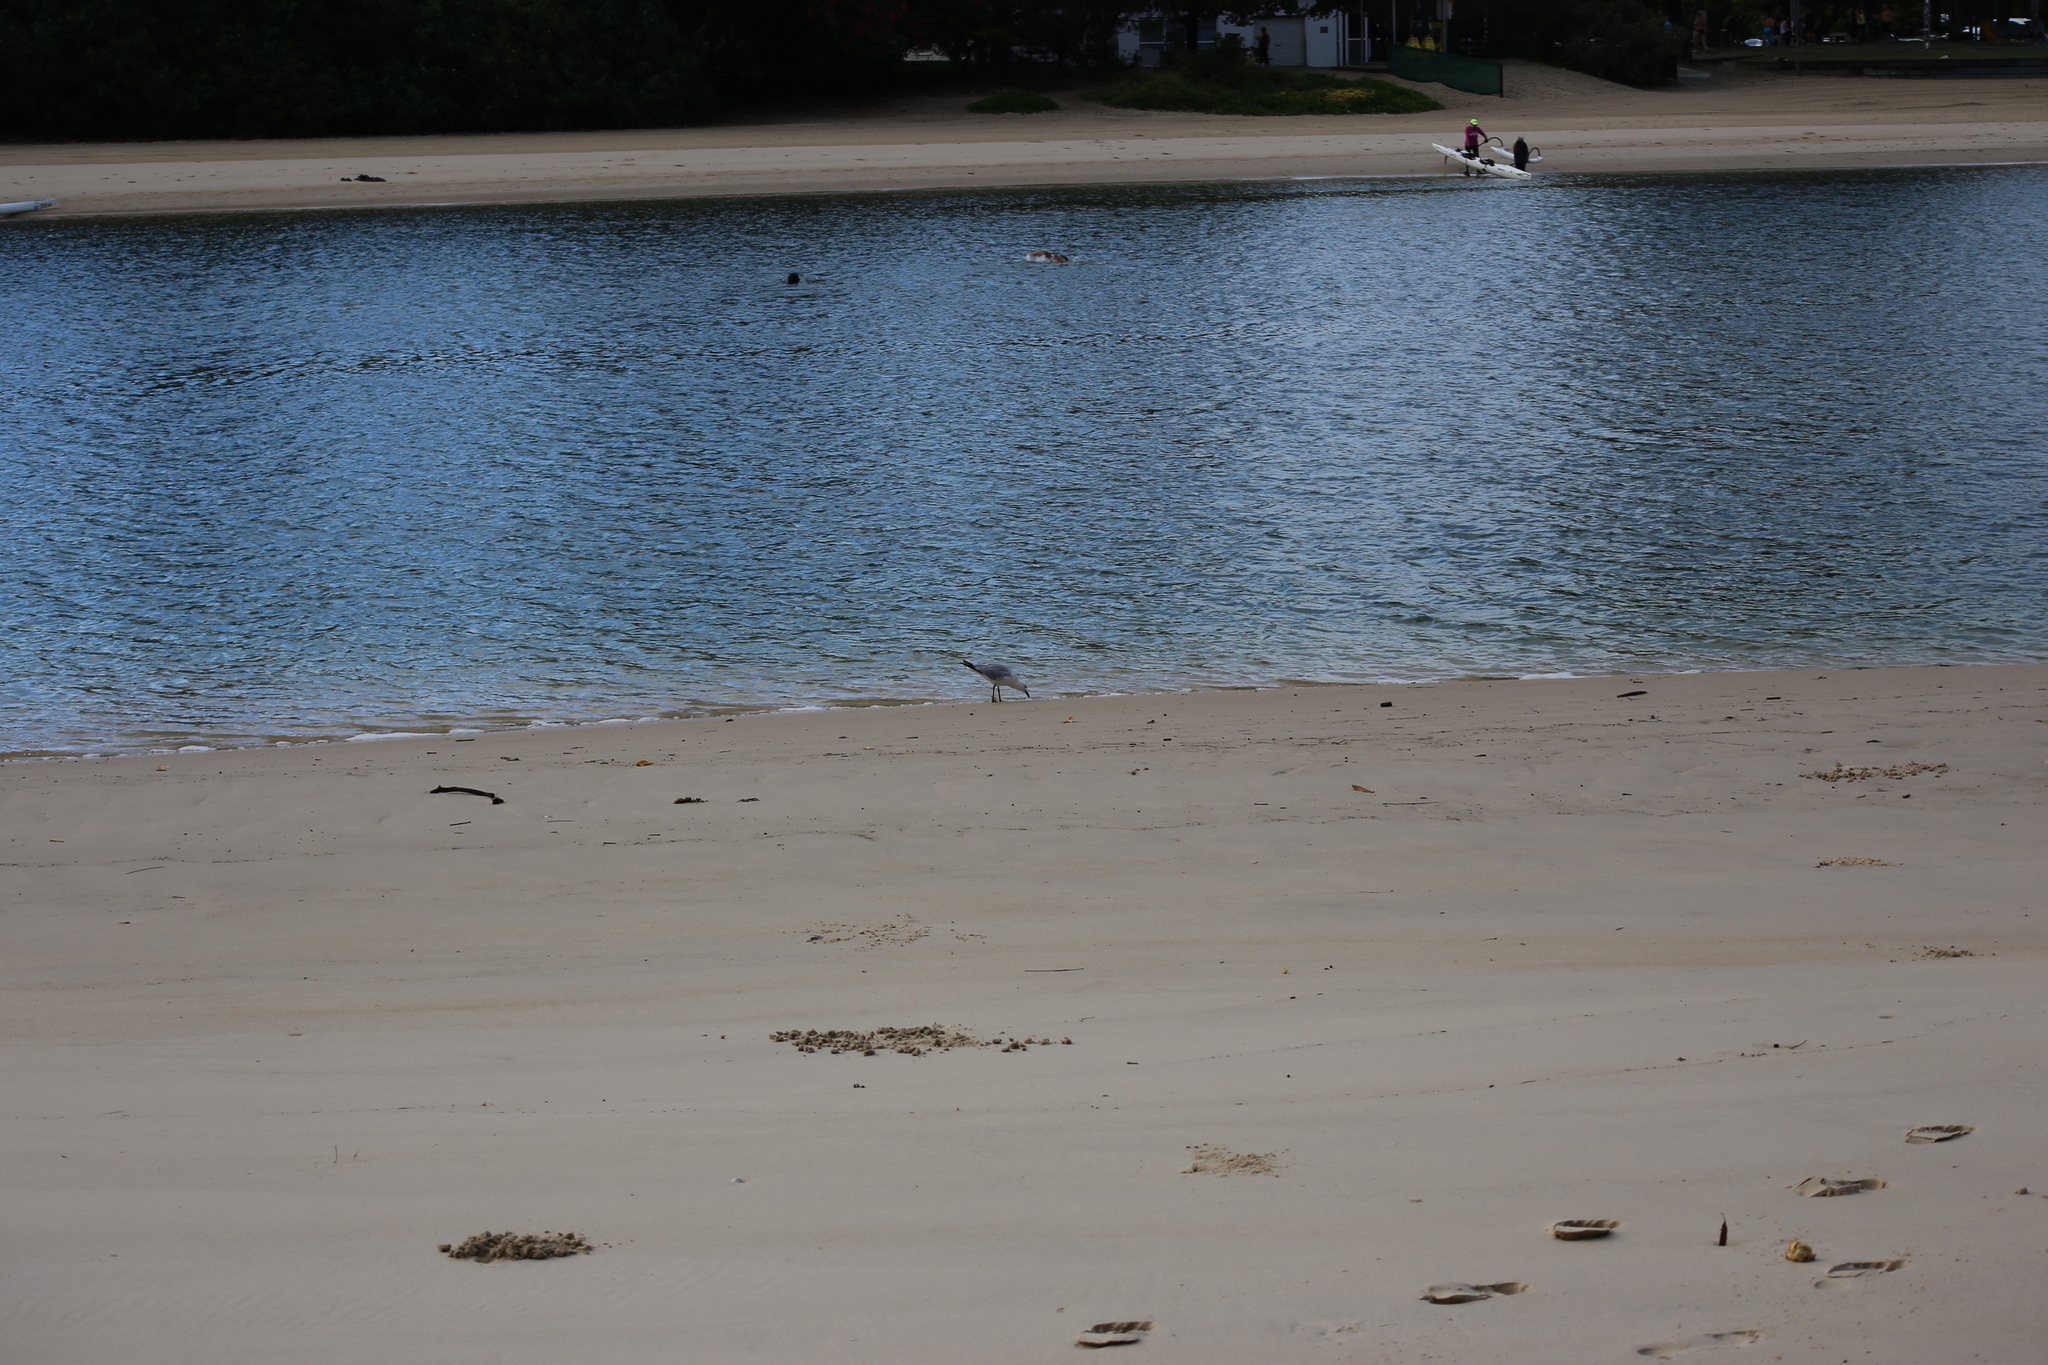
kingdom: Animalia
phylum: Chordata
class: Aves
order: Charadriiformes
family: Laridae
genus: Chroicocephalus
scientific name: Chroicocephalus novaehollandiae
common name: Silver gull
